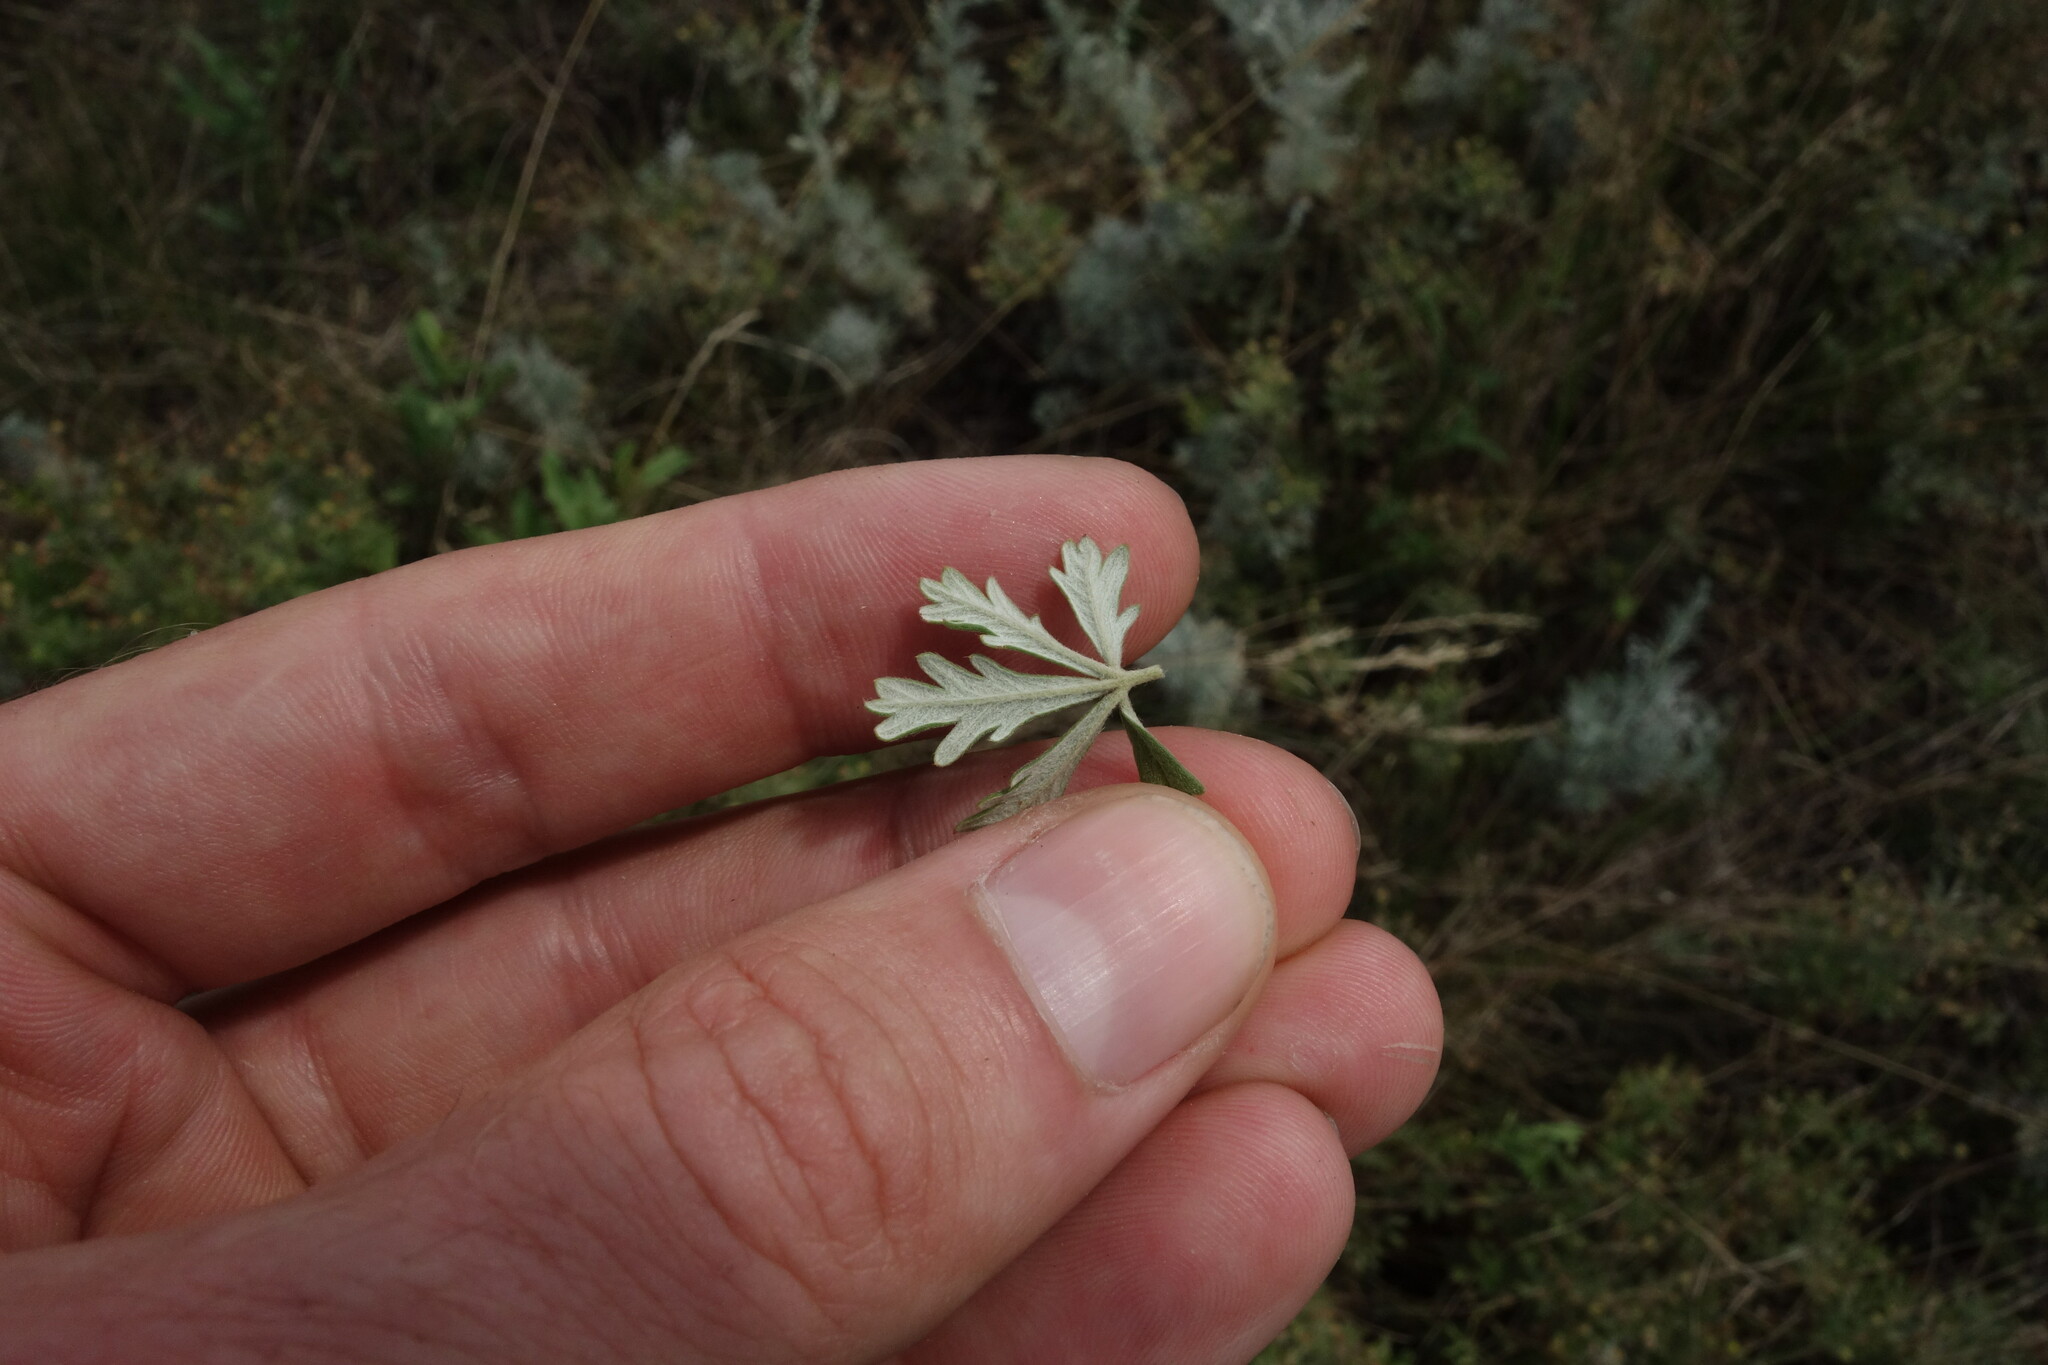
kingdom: Plantae
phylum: Tracheophyta
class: Magnoliopsida
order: Rosales
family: Rosaceae
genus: Potentilla
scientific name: Potentilla argentea
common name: Hoary cinquefoil
